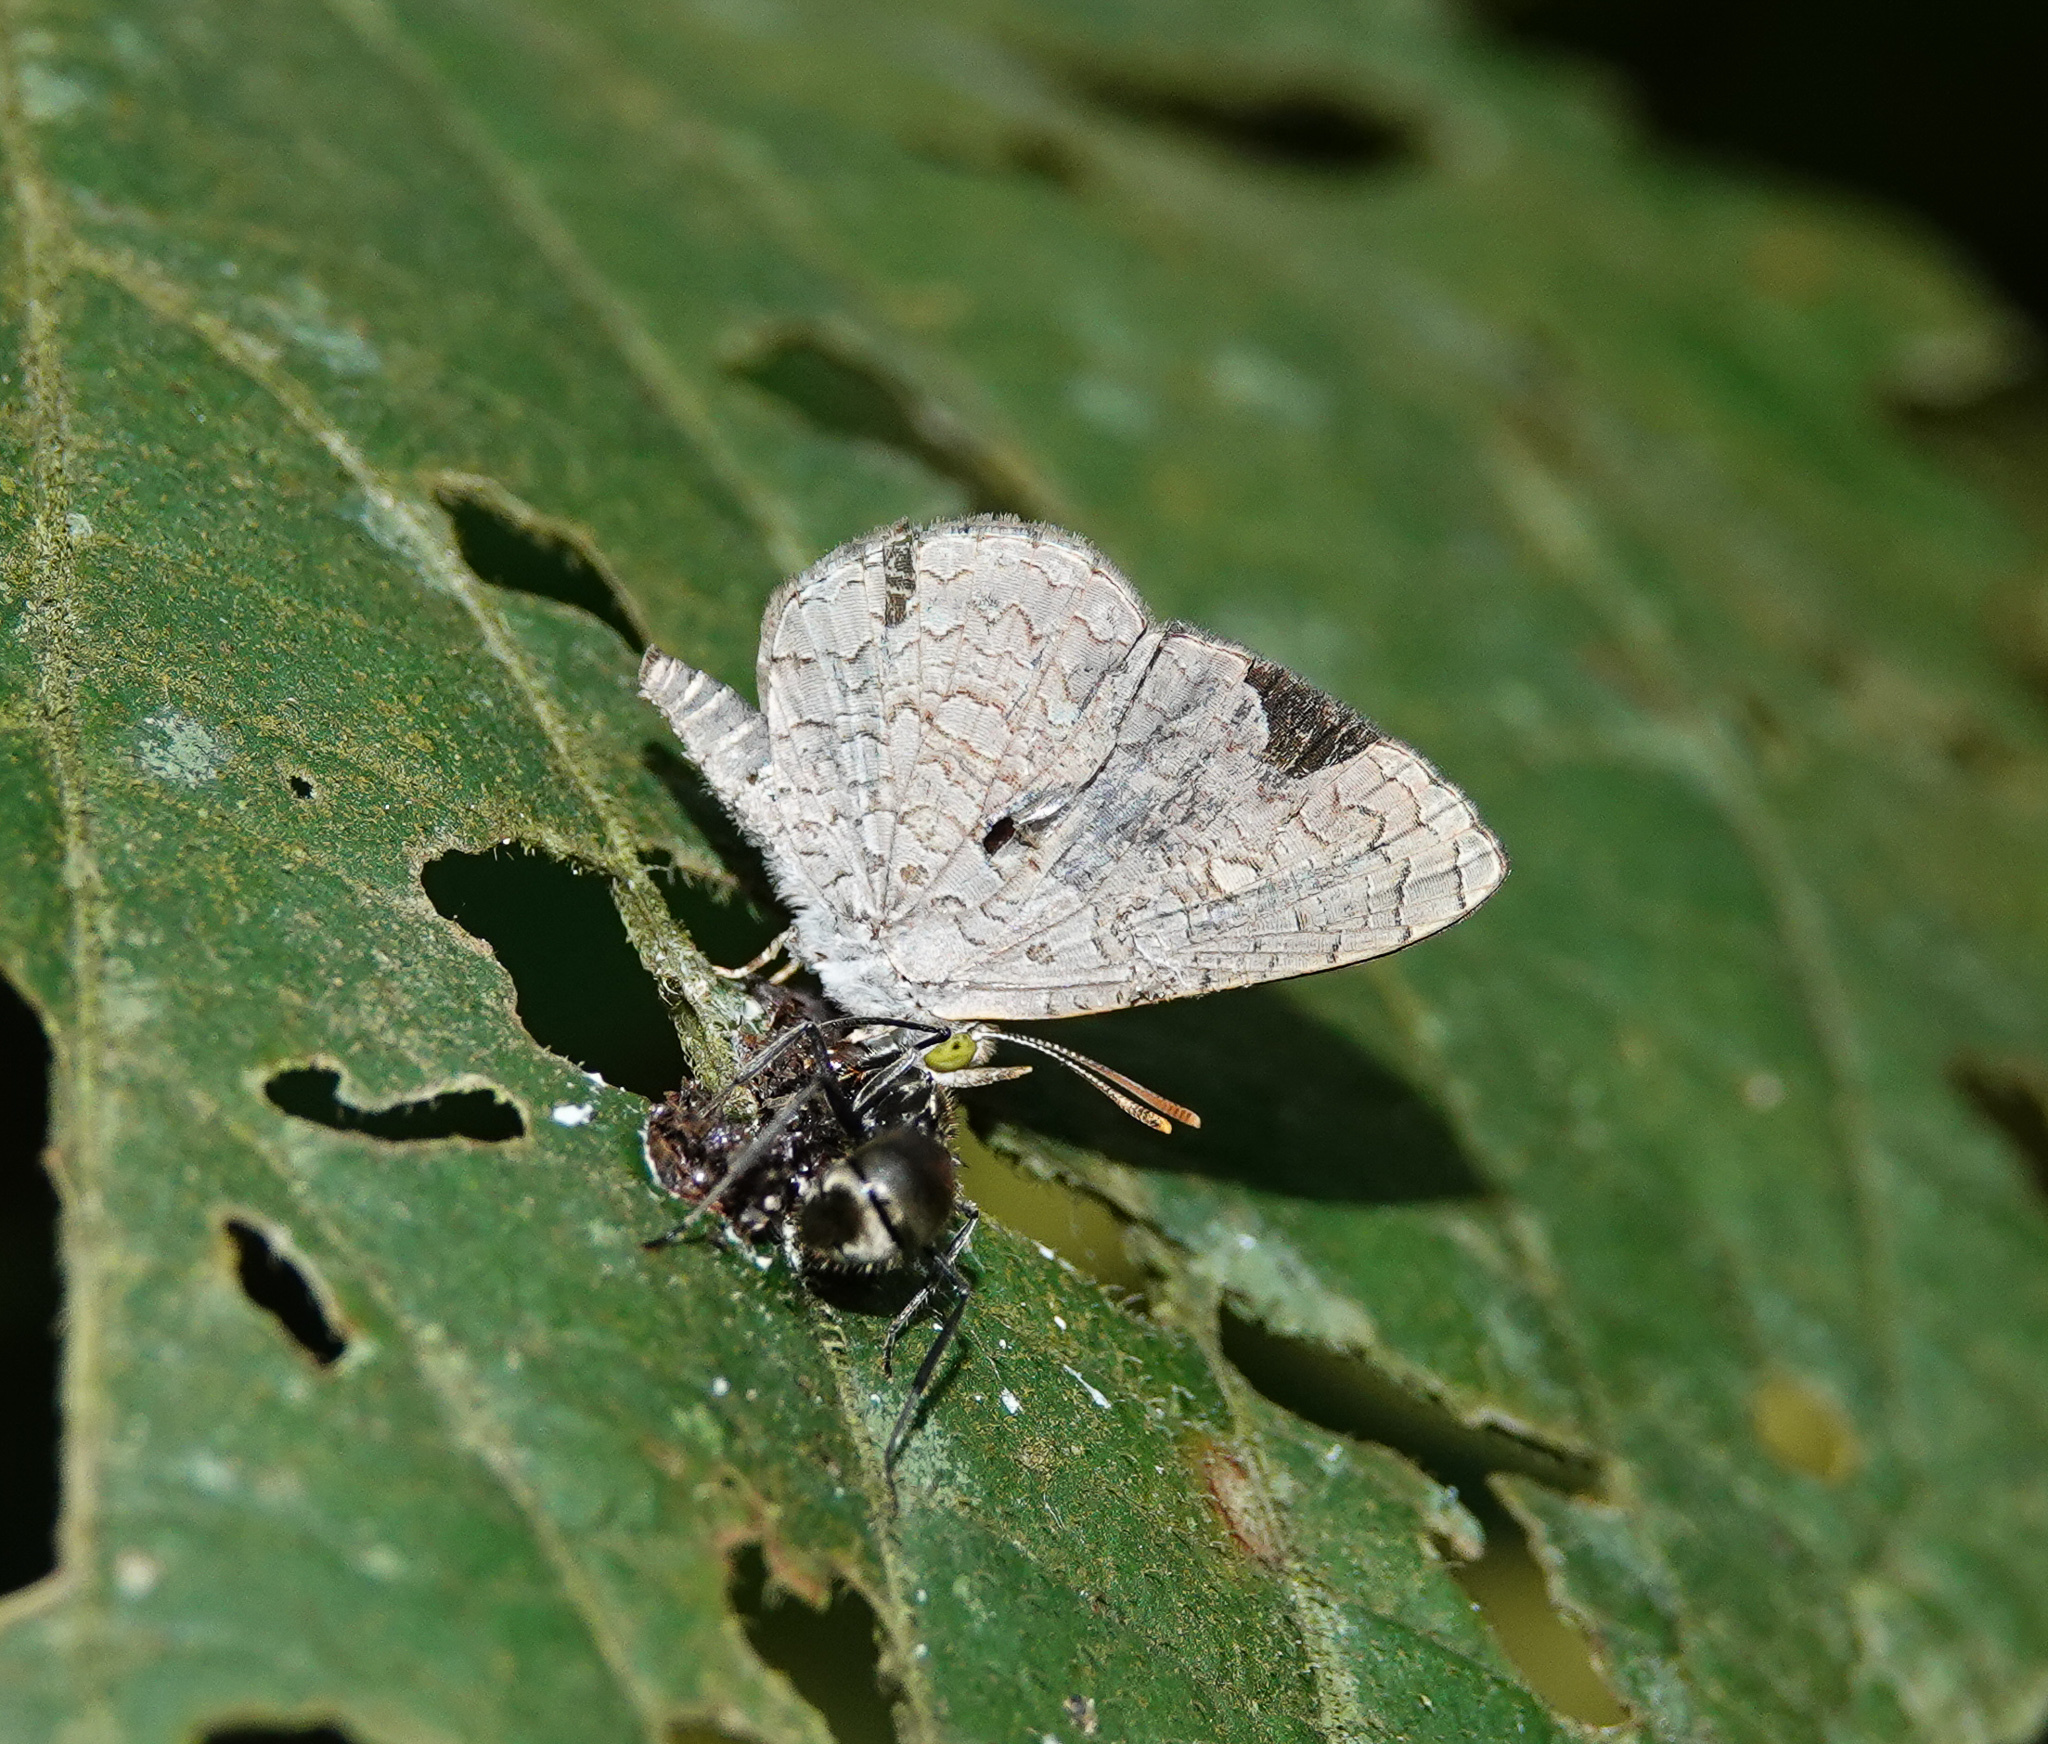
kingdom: Animalia
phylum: Arthropoda
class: Insecta
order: Lepidoptera
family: Lycaenidae
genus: Spalgis
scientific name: Spalgis epius
